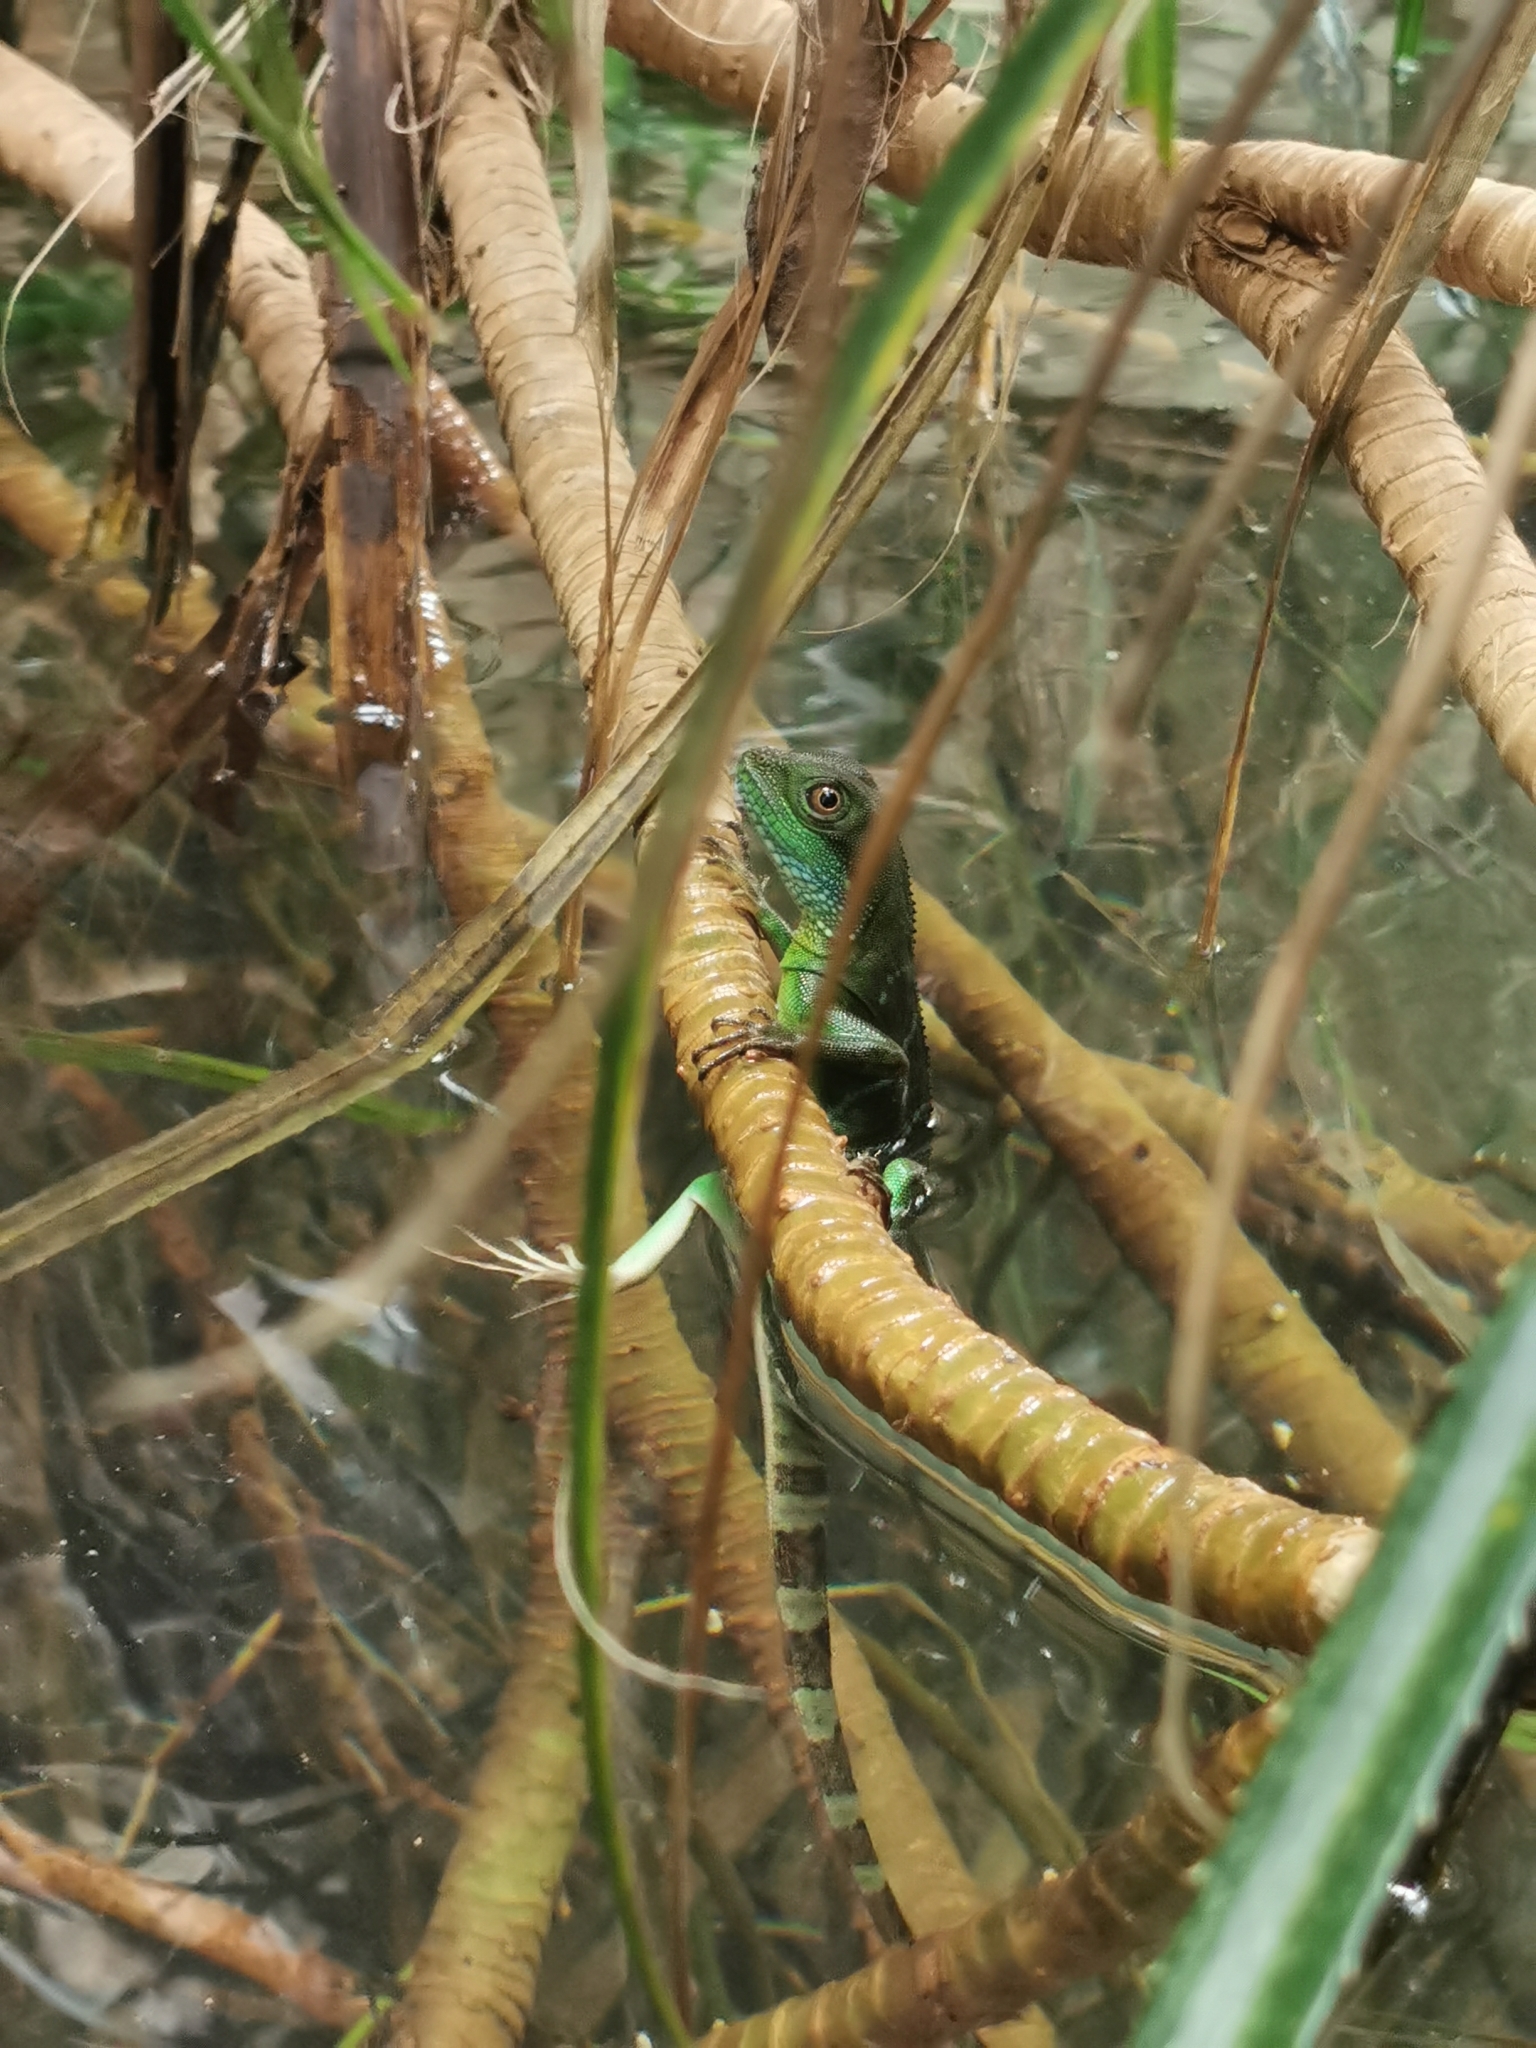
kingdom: Animalia
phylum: Chordata
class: Squamata
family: Agamidae
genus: Physignathus
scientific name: Physignathus cocincinus
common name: Asian water dragon
